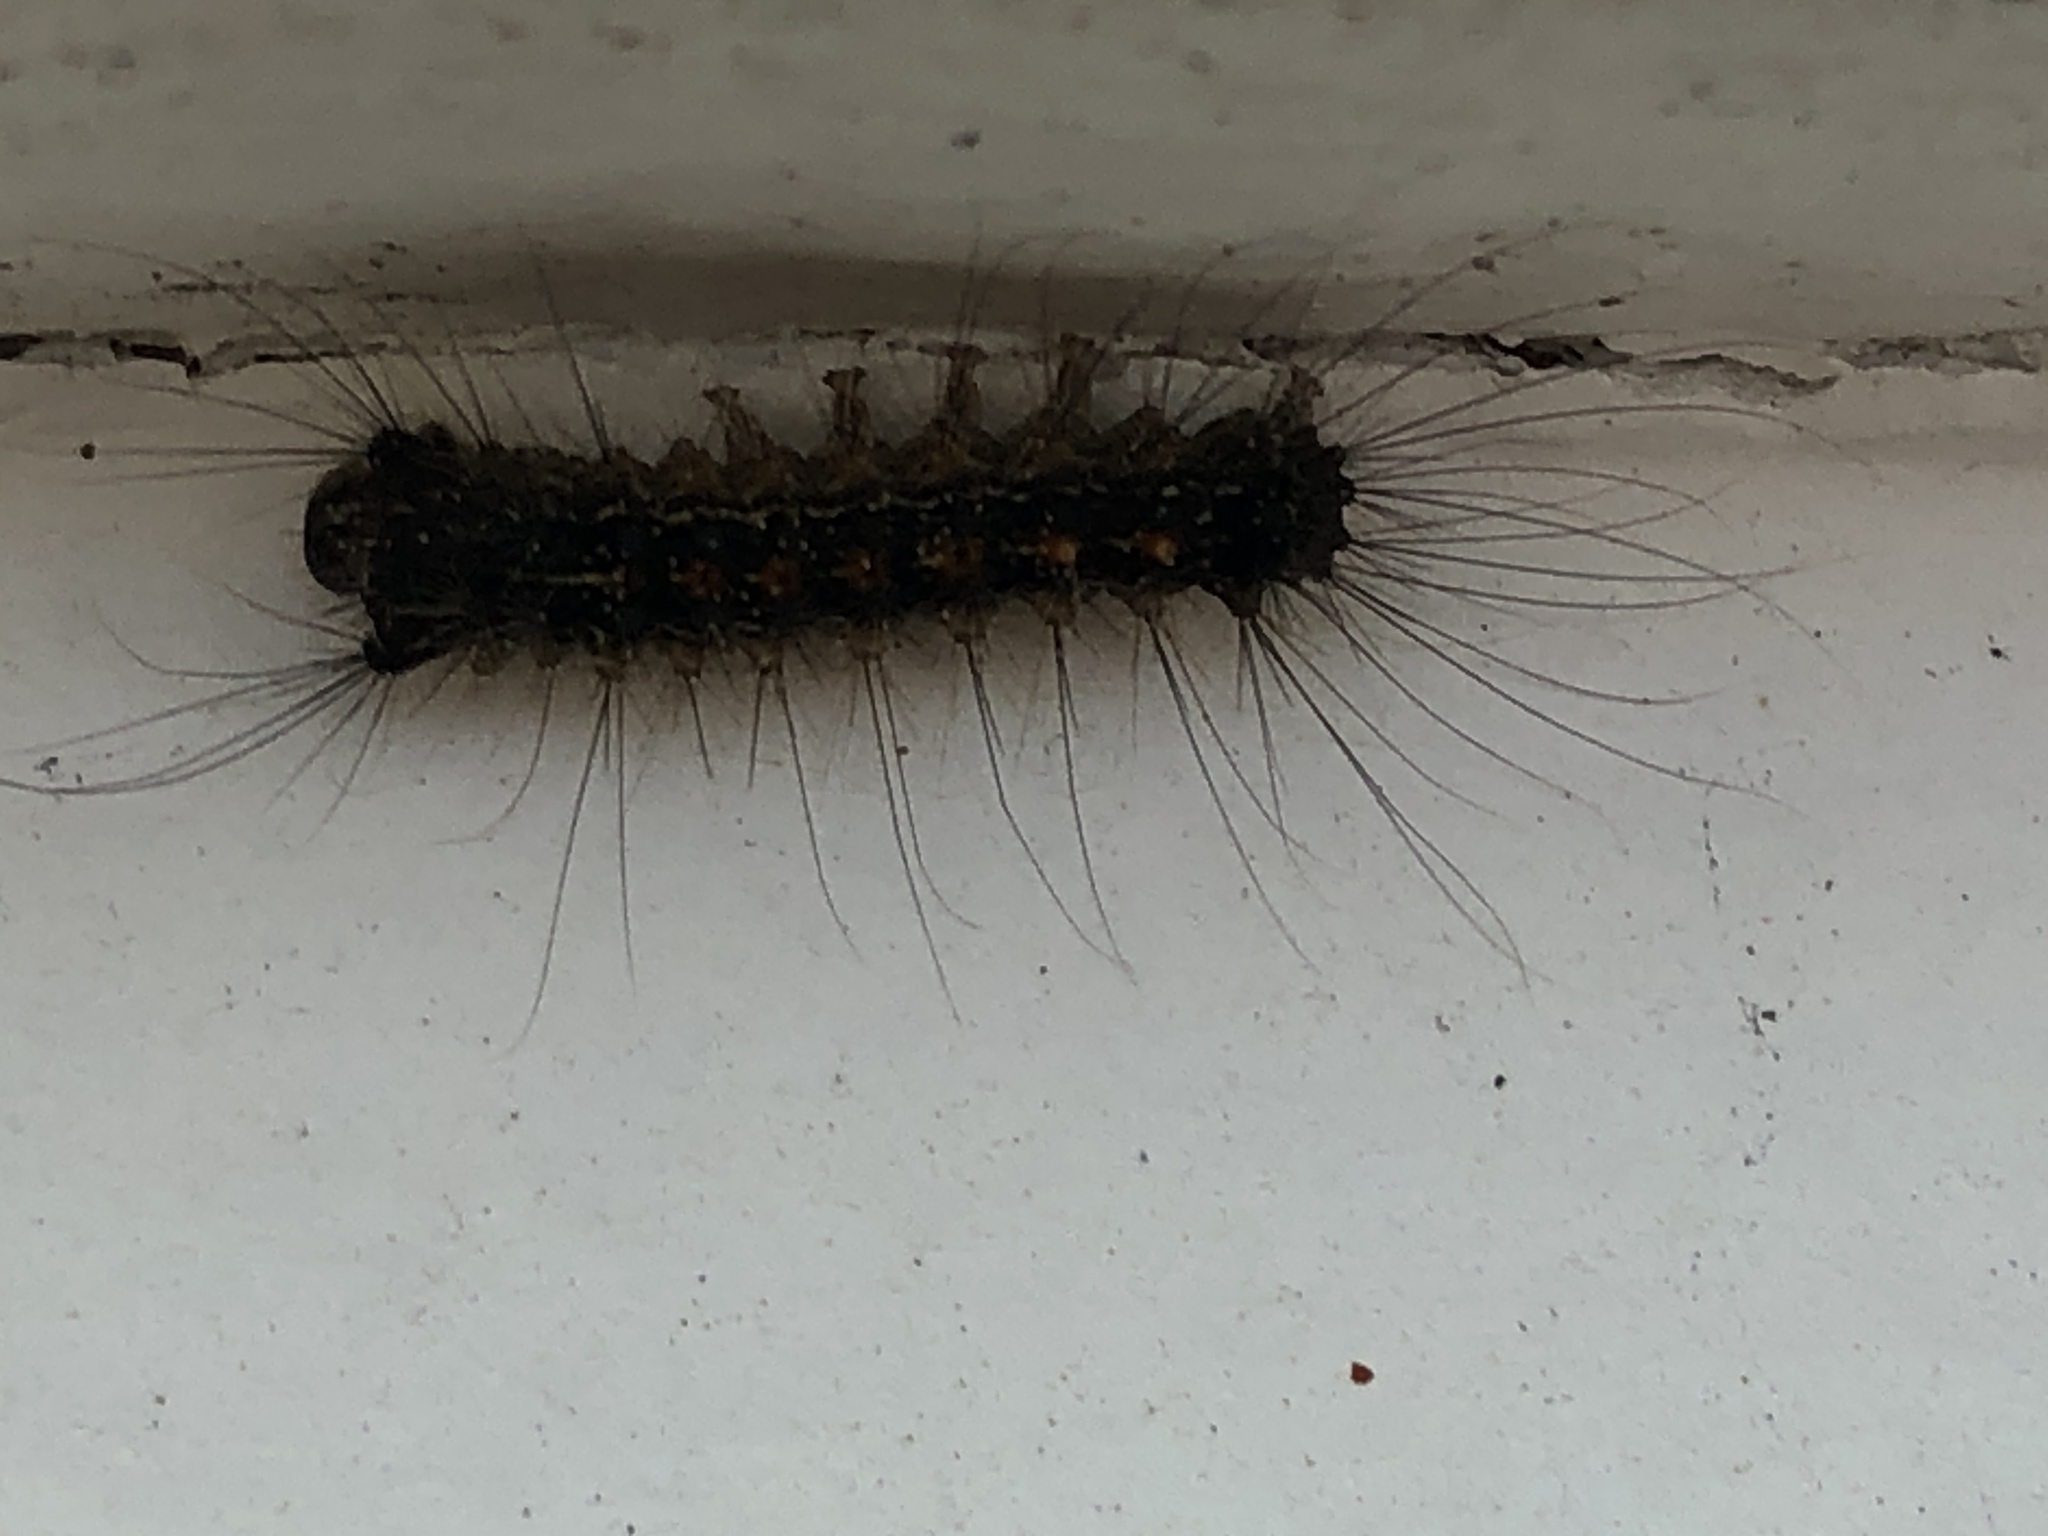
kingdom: Animalia
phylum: Arthropoda
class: Insecta
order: Lepidoptera
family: Erebidae
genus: Lymantria
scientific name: Lymantria dispar
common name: Gypsy moth
